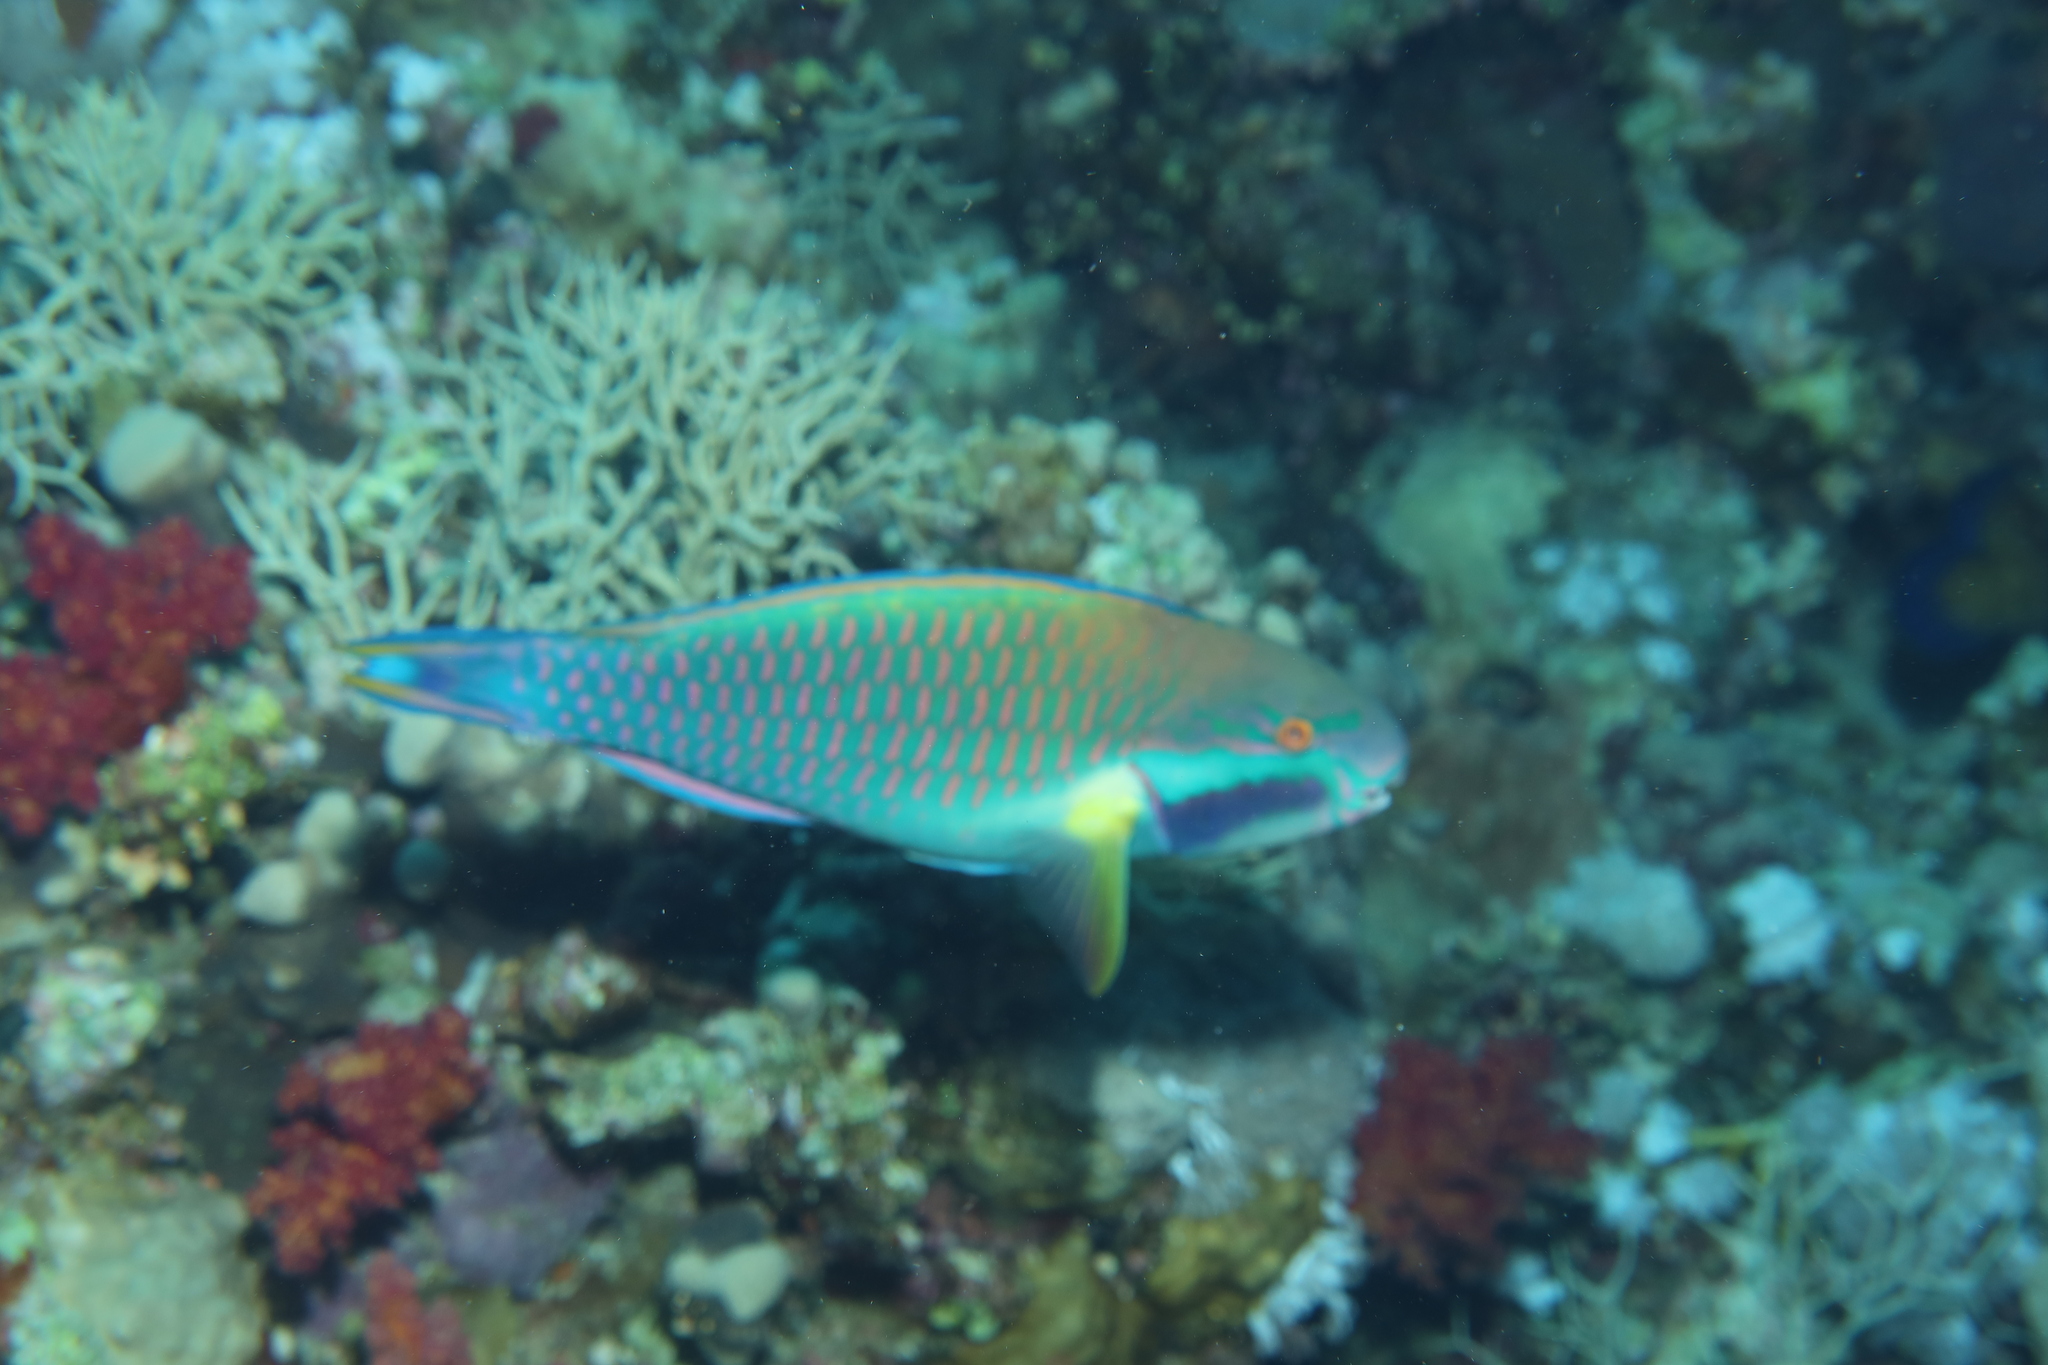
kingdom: Animalia
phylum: Chordata
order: Perciformes
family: Scaridae
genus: Chlorurus
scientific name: Chlorurus genazonatus
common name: Purplestreak parrotfish
